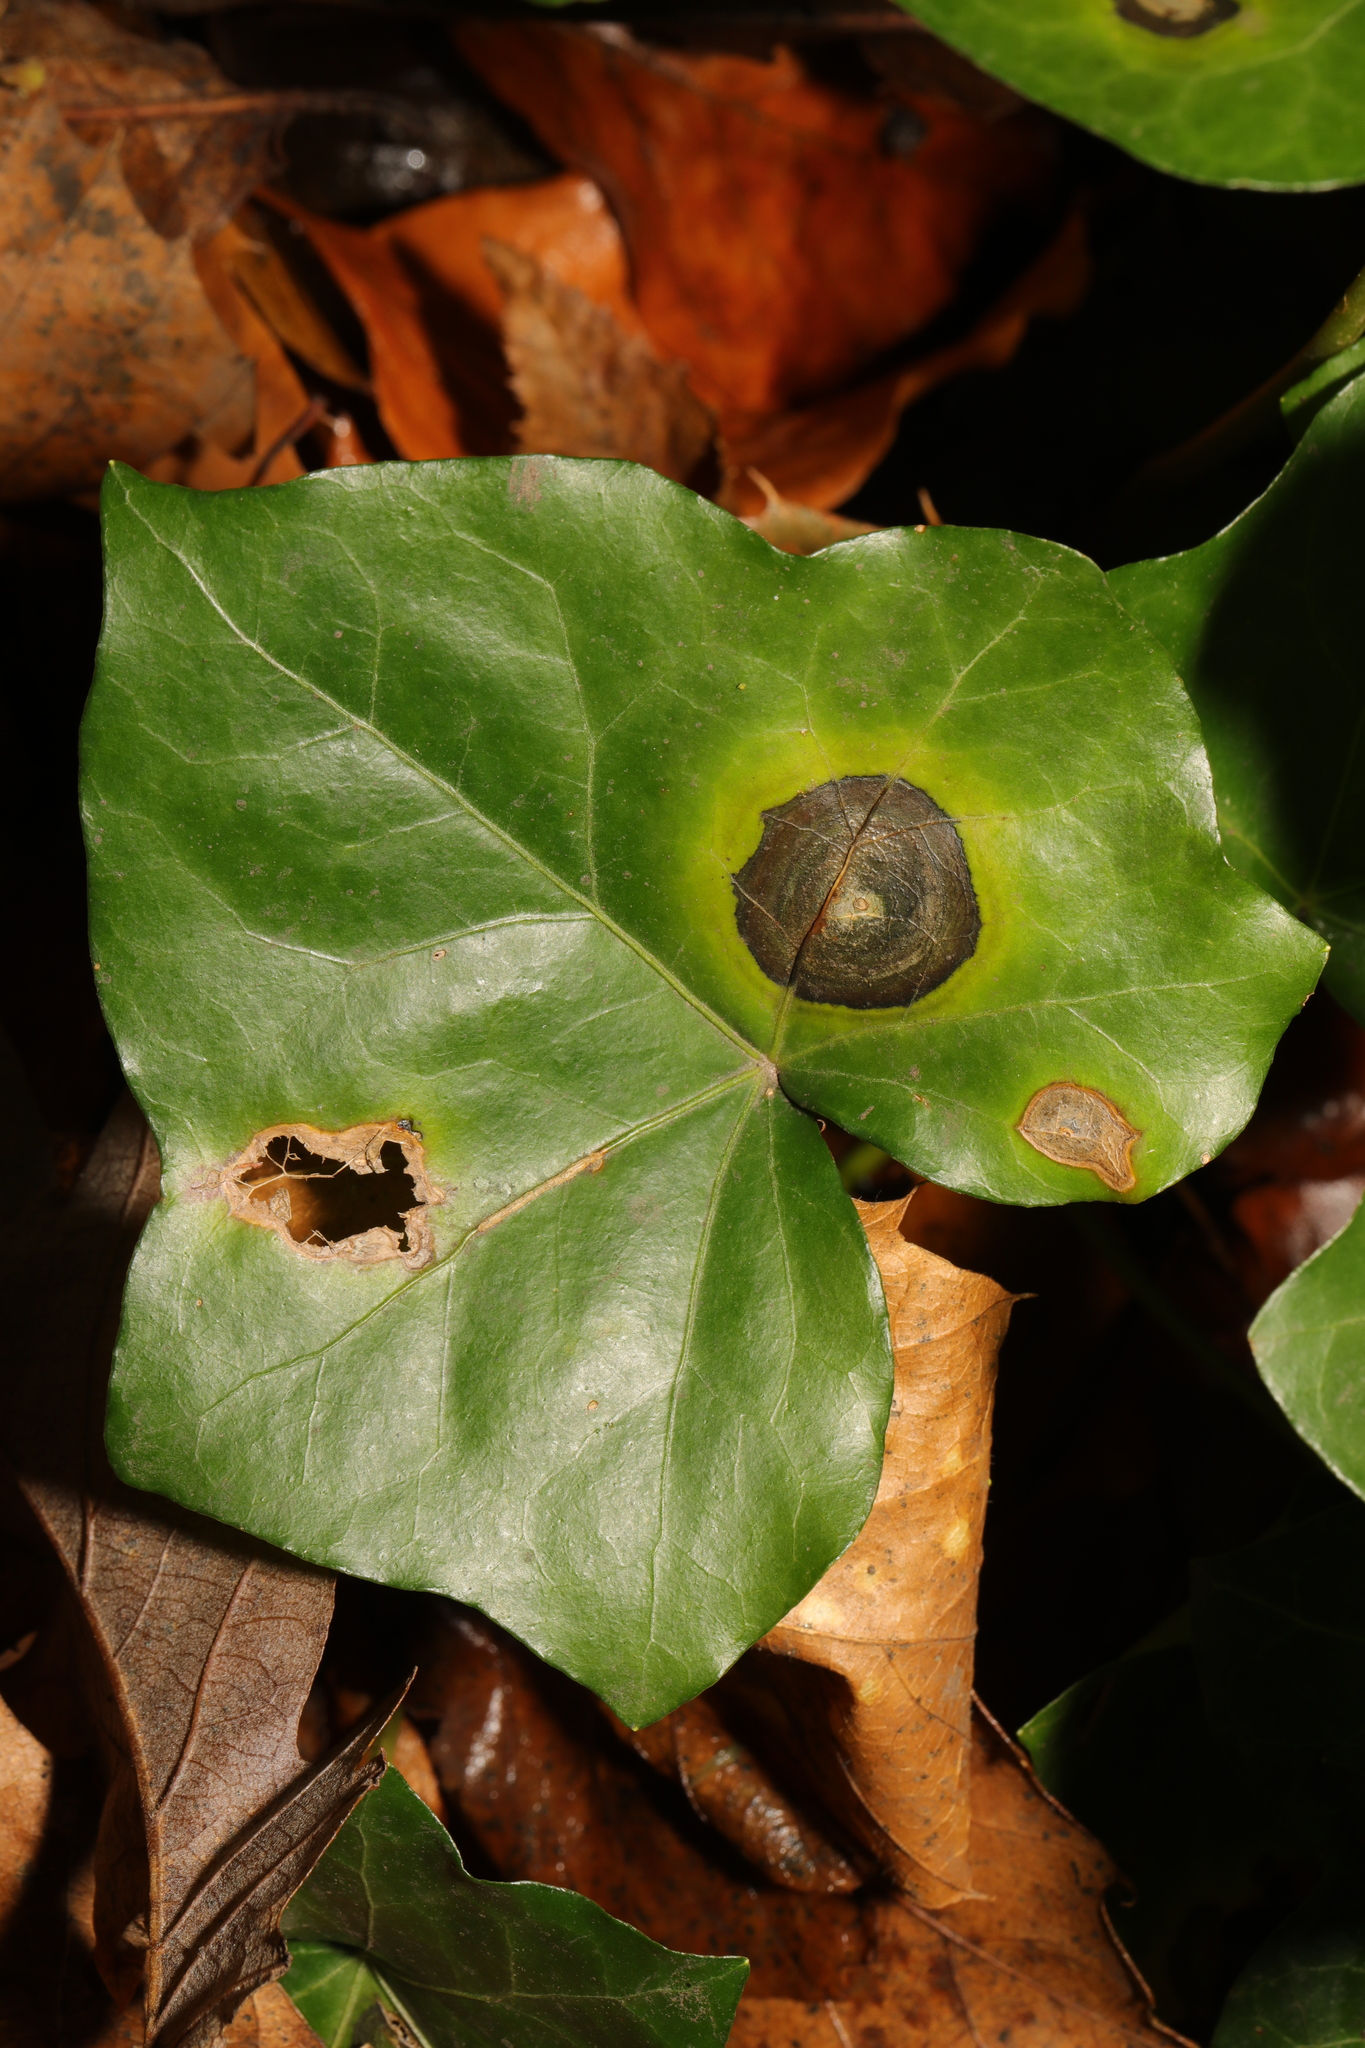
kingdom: Fungi
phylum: Ascomycota
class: Dothideomycetes
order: Pleosporales
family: Didymellaceae
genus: Boeremia
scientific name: Boeremia hedericola
